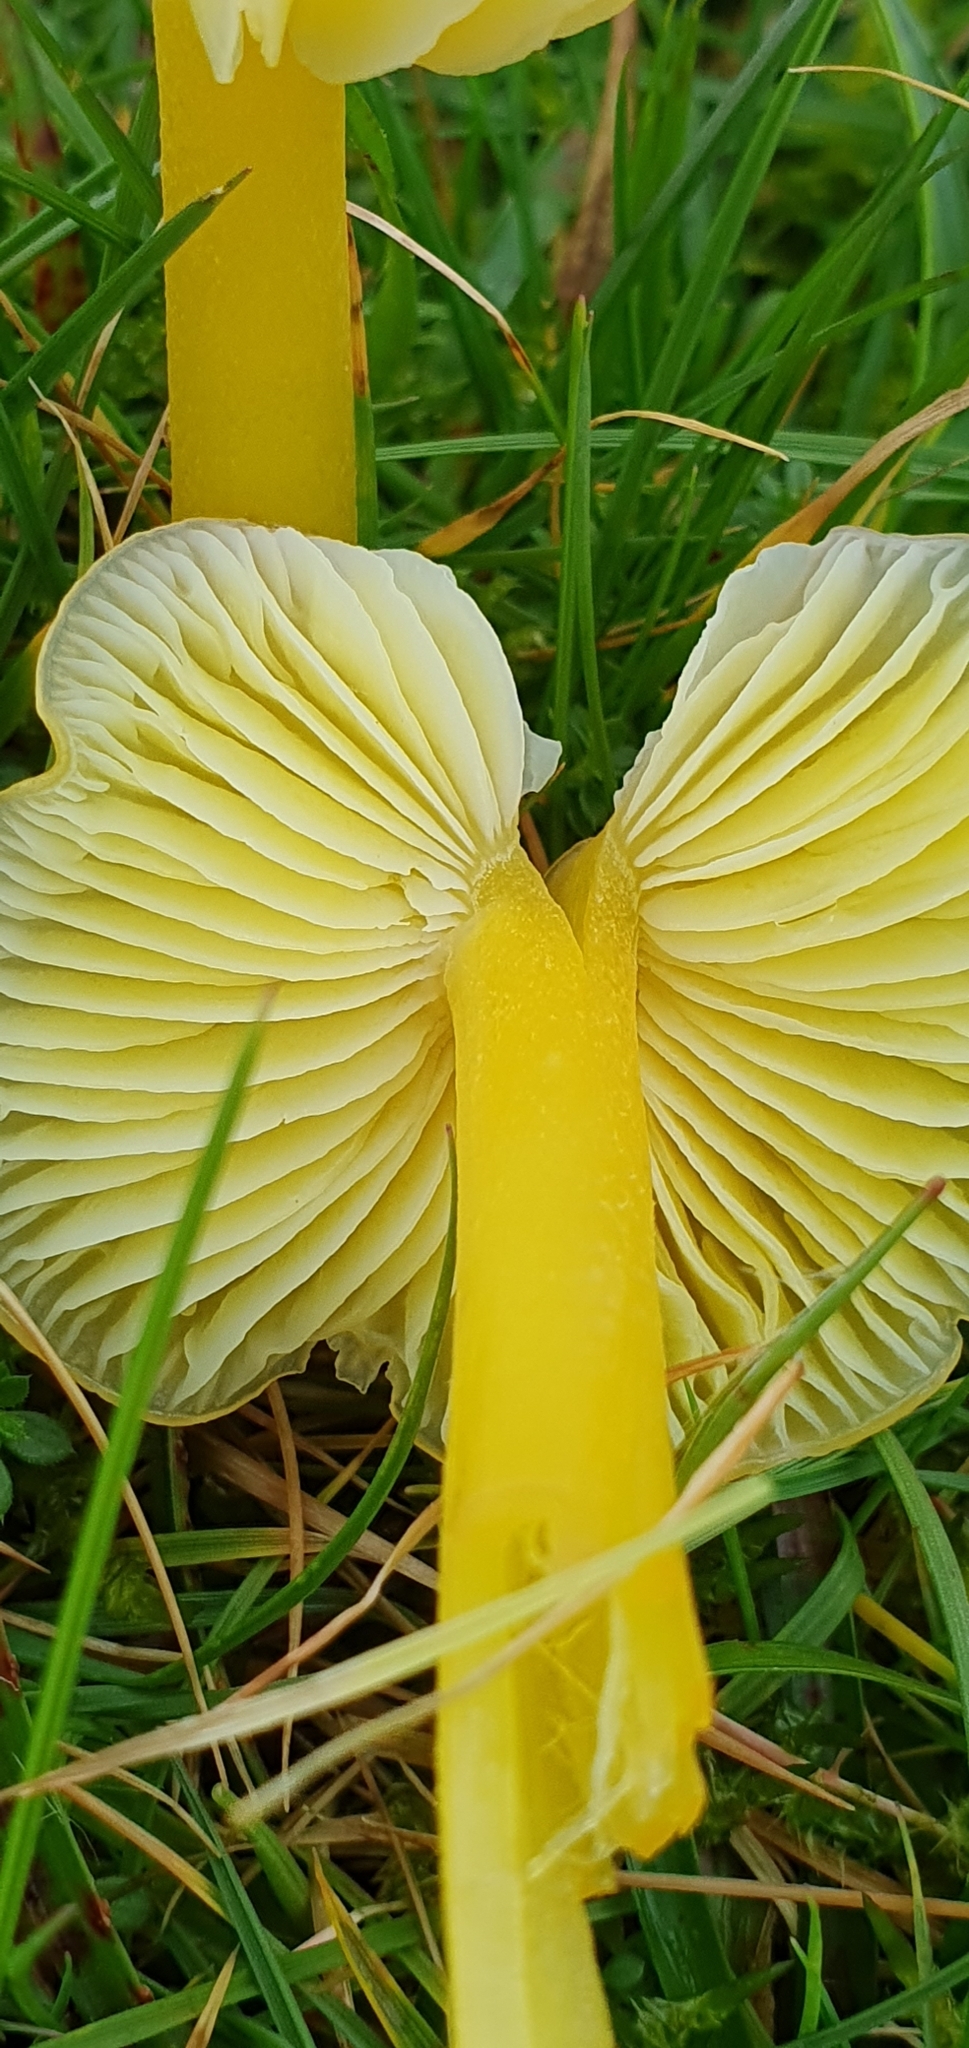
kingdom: Fungi
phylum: Basidiomycota
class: Agaricomycetes
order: Agaricales
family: Hygrophoraceae
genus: Hygrocybe
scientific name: Hygrocybe chlorophana
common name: Golden waxcap
